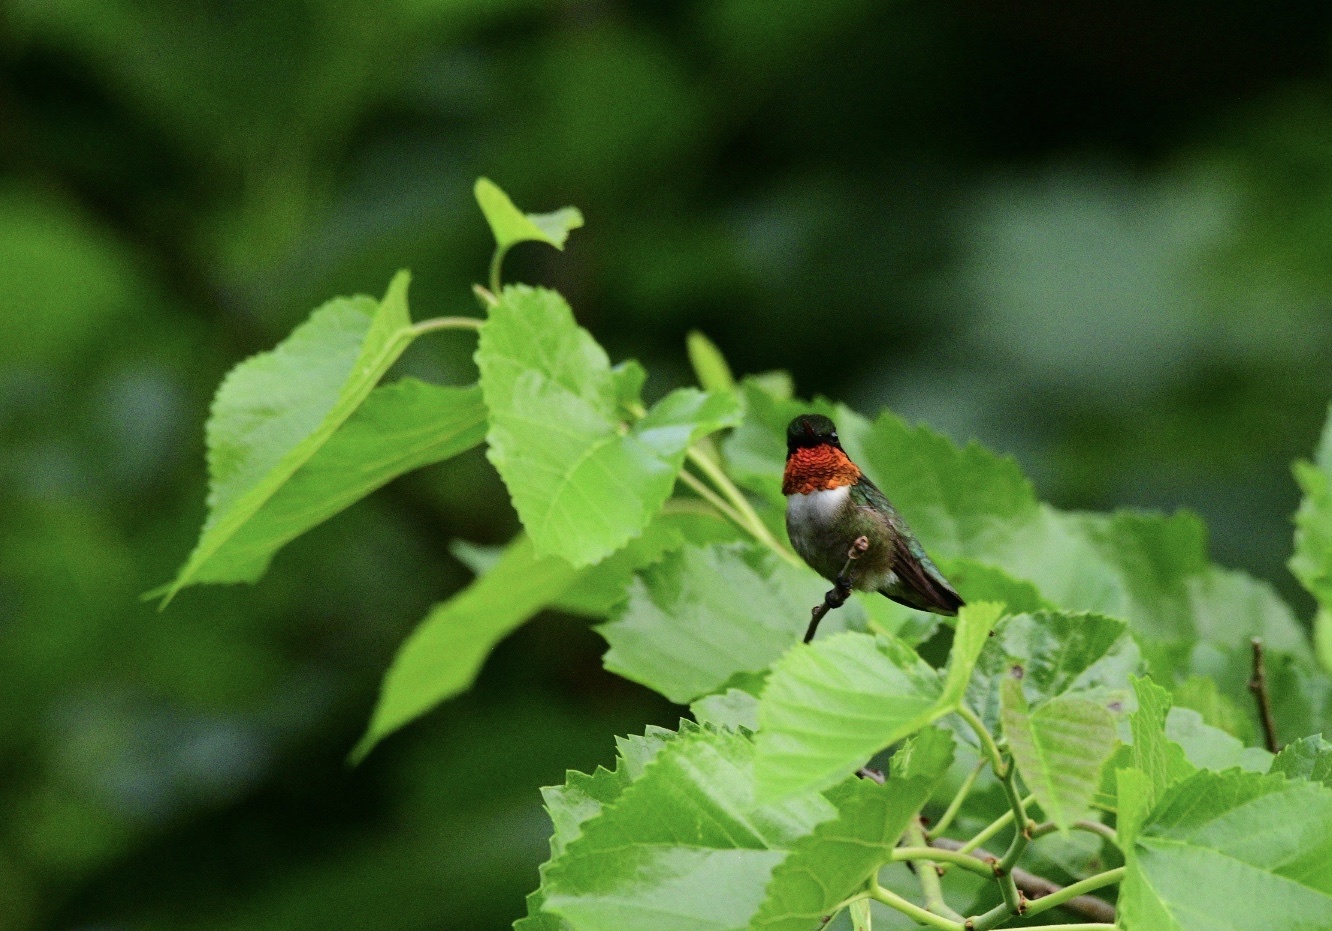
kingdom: Animalia
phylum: Chordata
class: Aves
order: Apodiformes
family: Trochilidae
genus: Archilochus
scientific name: Archilochus colubris
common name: Ruby-throated hummingbird
